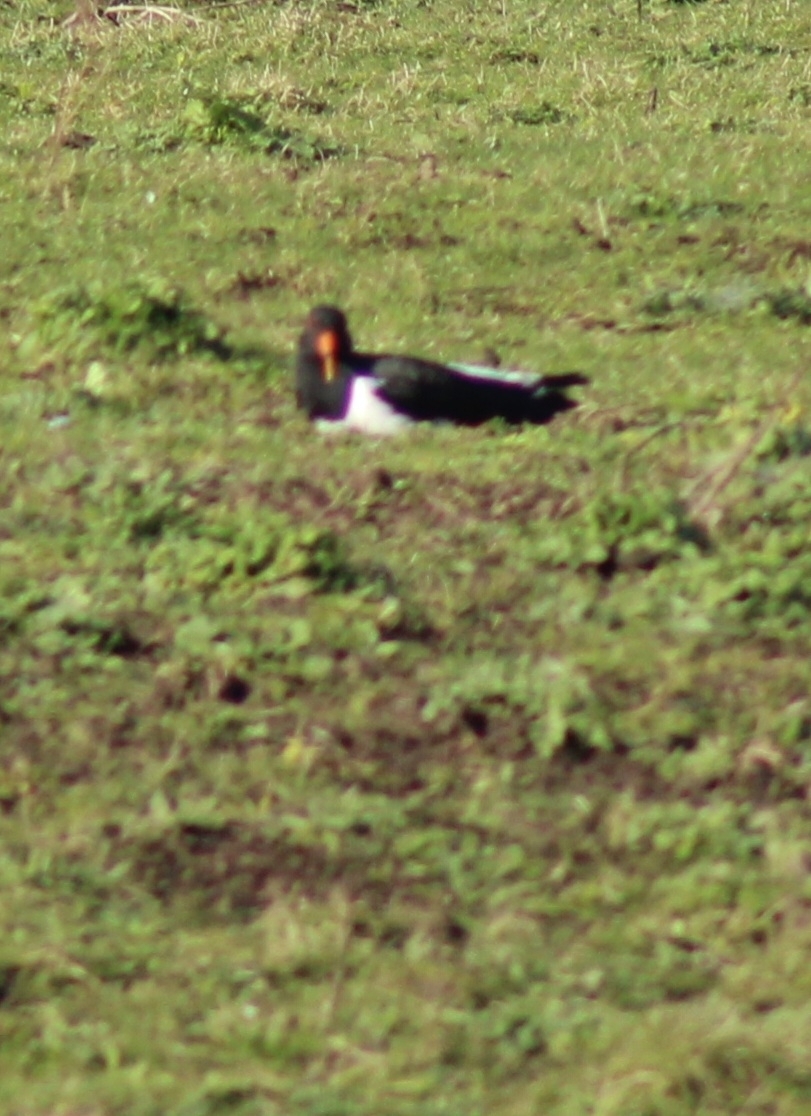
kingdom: Animalia
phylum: Chordata
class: Aves
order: Charadriiformes
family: Haematopodidae
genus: Haematopus
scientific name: Haematopus ostralegus
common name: Eurasian oystercatcher
